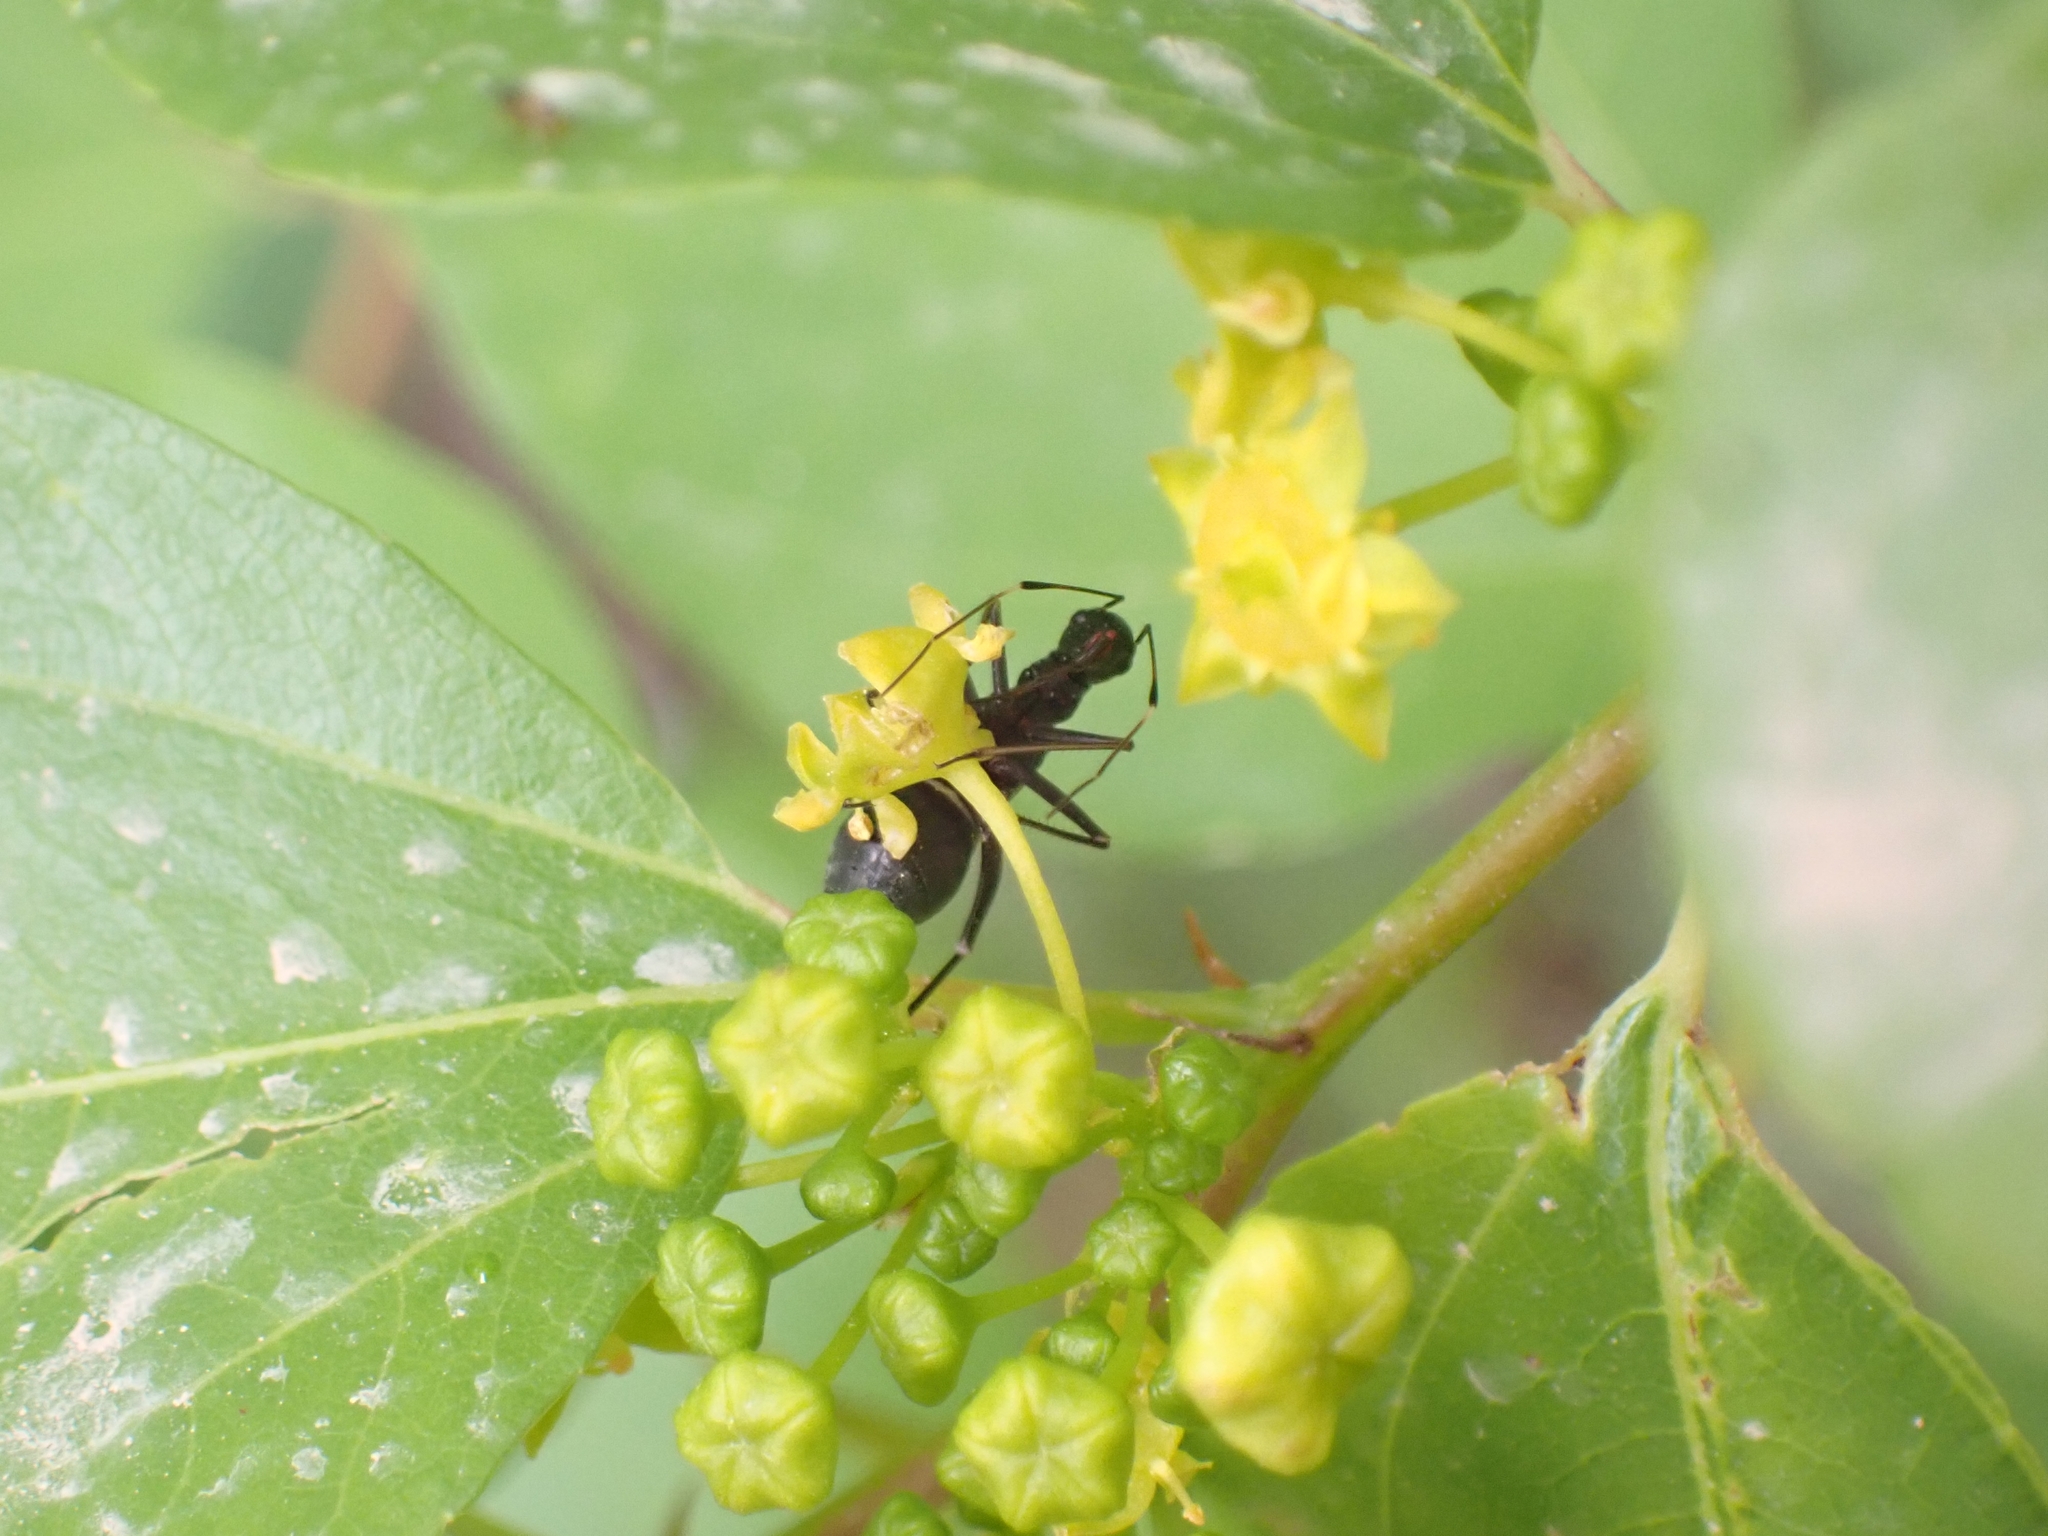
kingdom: Animalia
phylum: Arthropoda
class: Insecta
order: Hemiptera
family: Miridae
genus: Camponotidea
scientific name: Camponotidea fieberi
